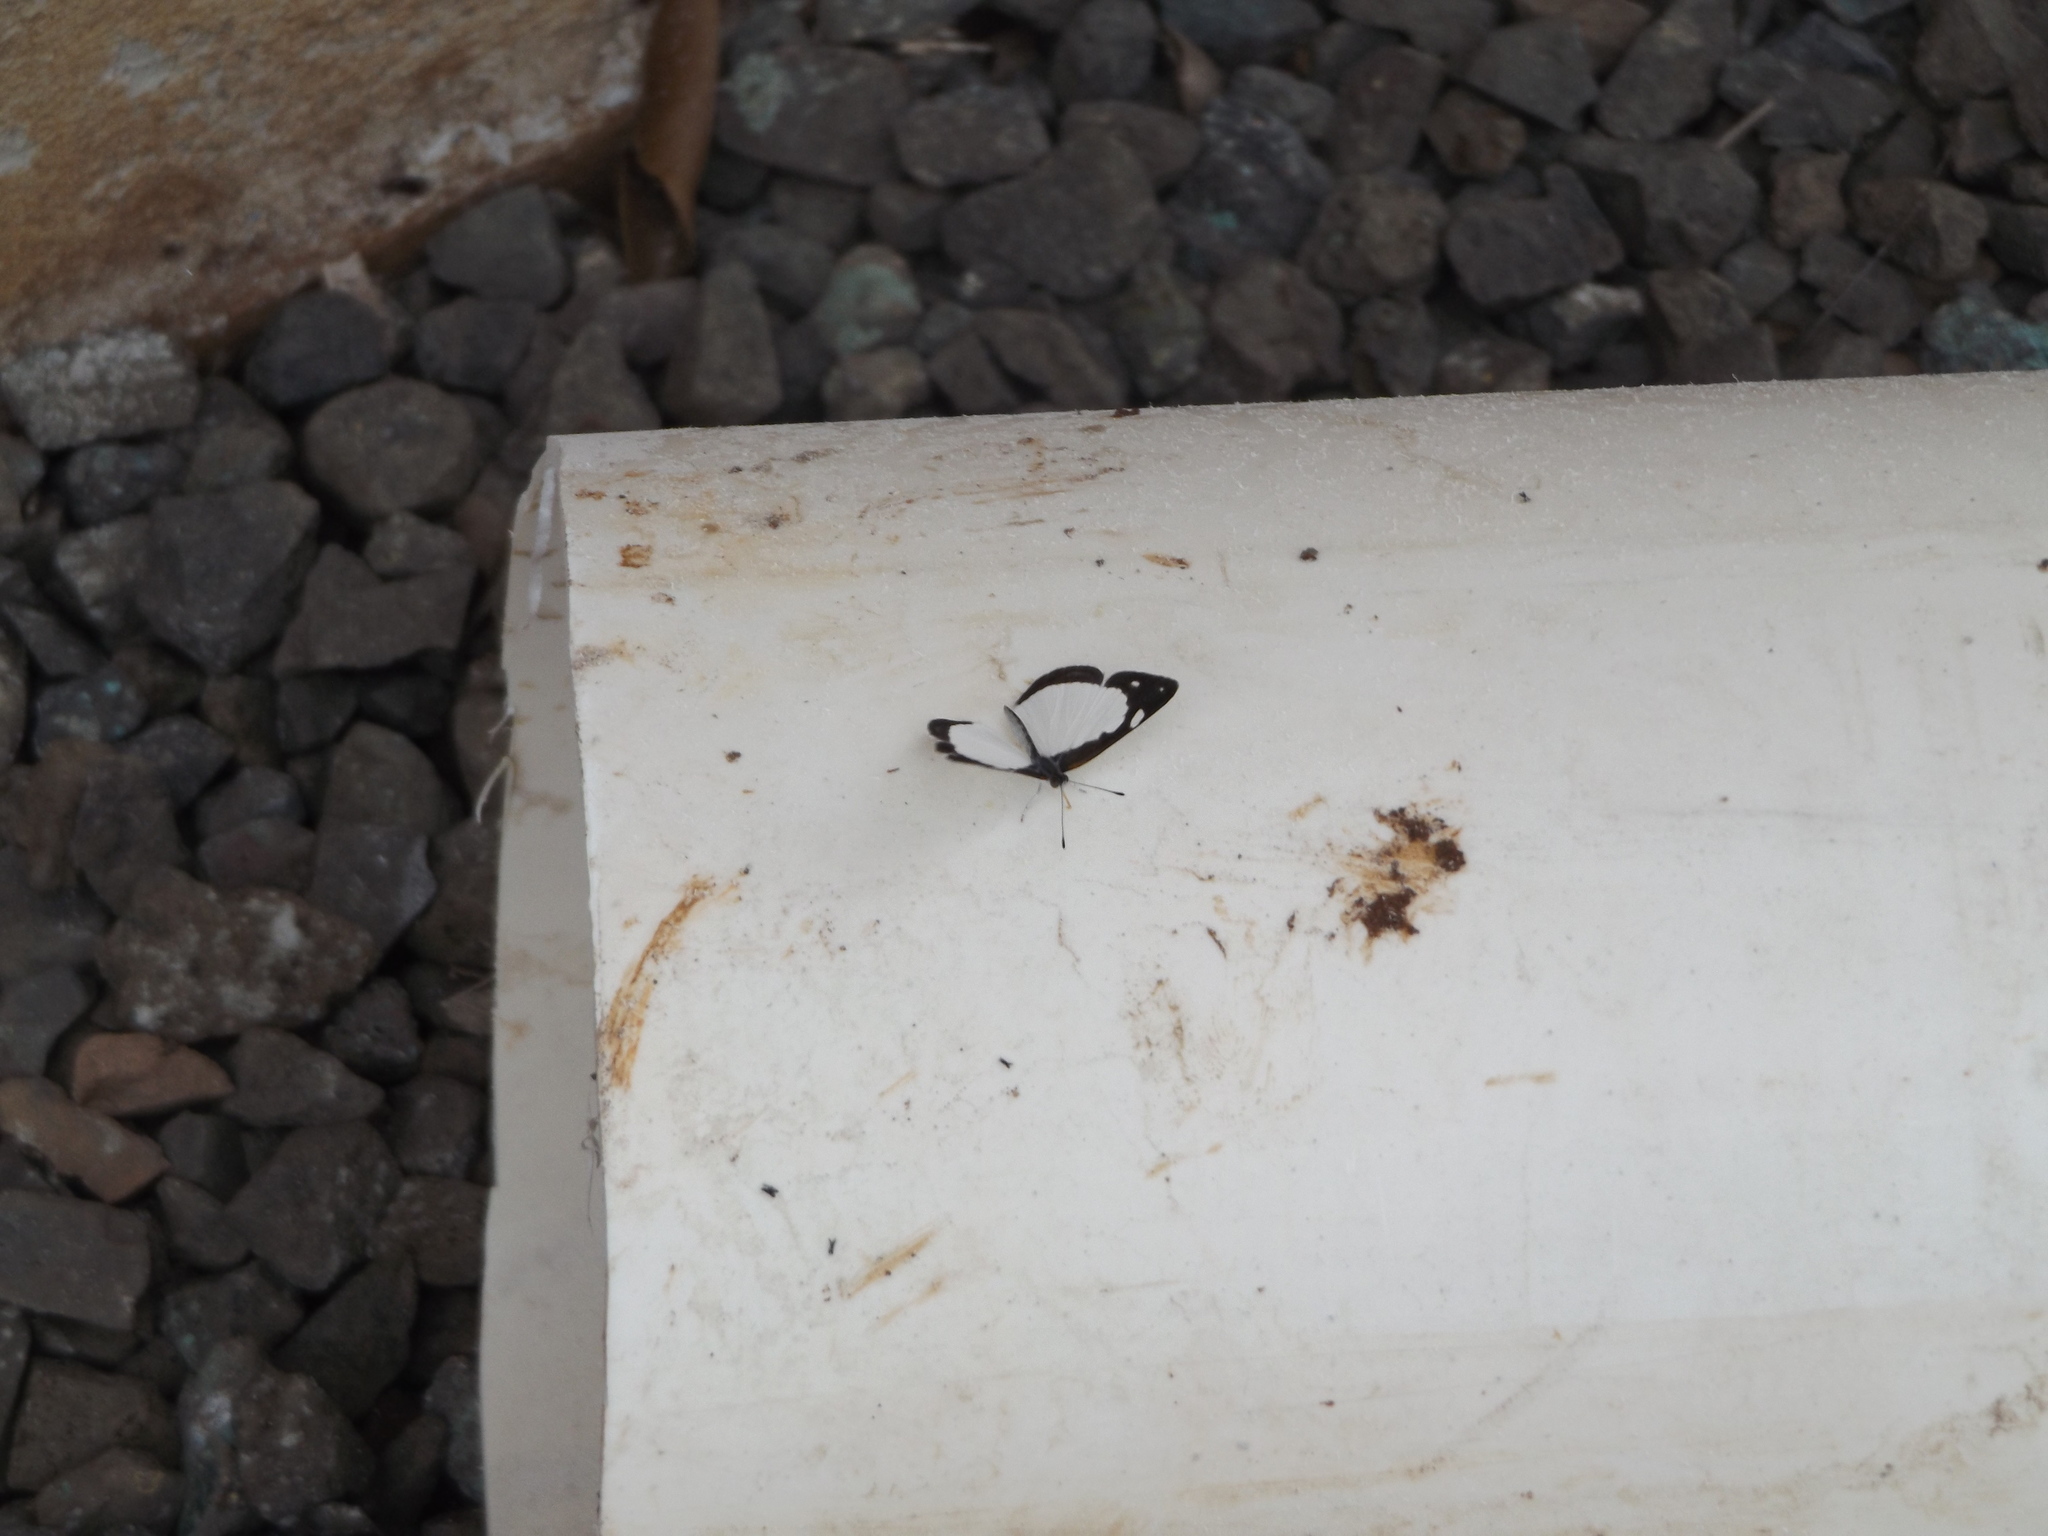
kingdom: Animalia
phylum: Arthropoda
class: Insecta
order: Lepidoptera
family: Nymphalidae
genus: Dynamine
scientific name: Dynamine agacles
